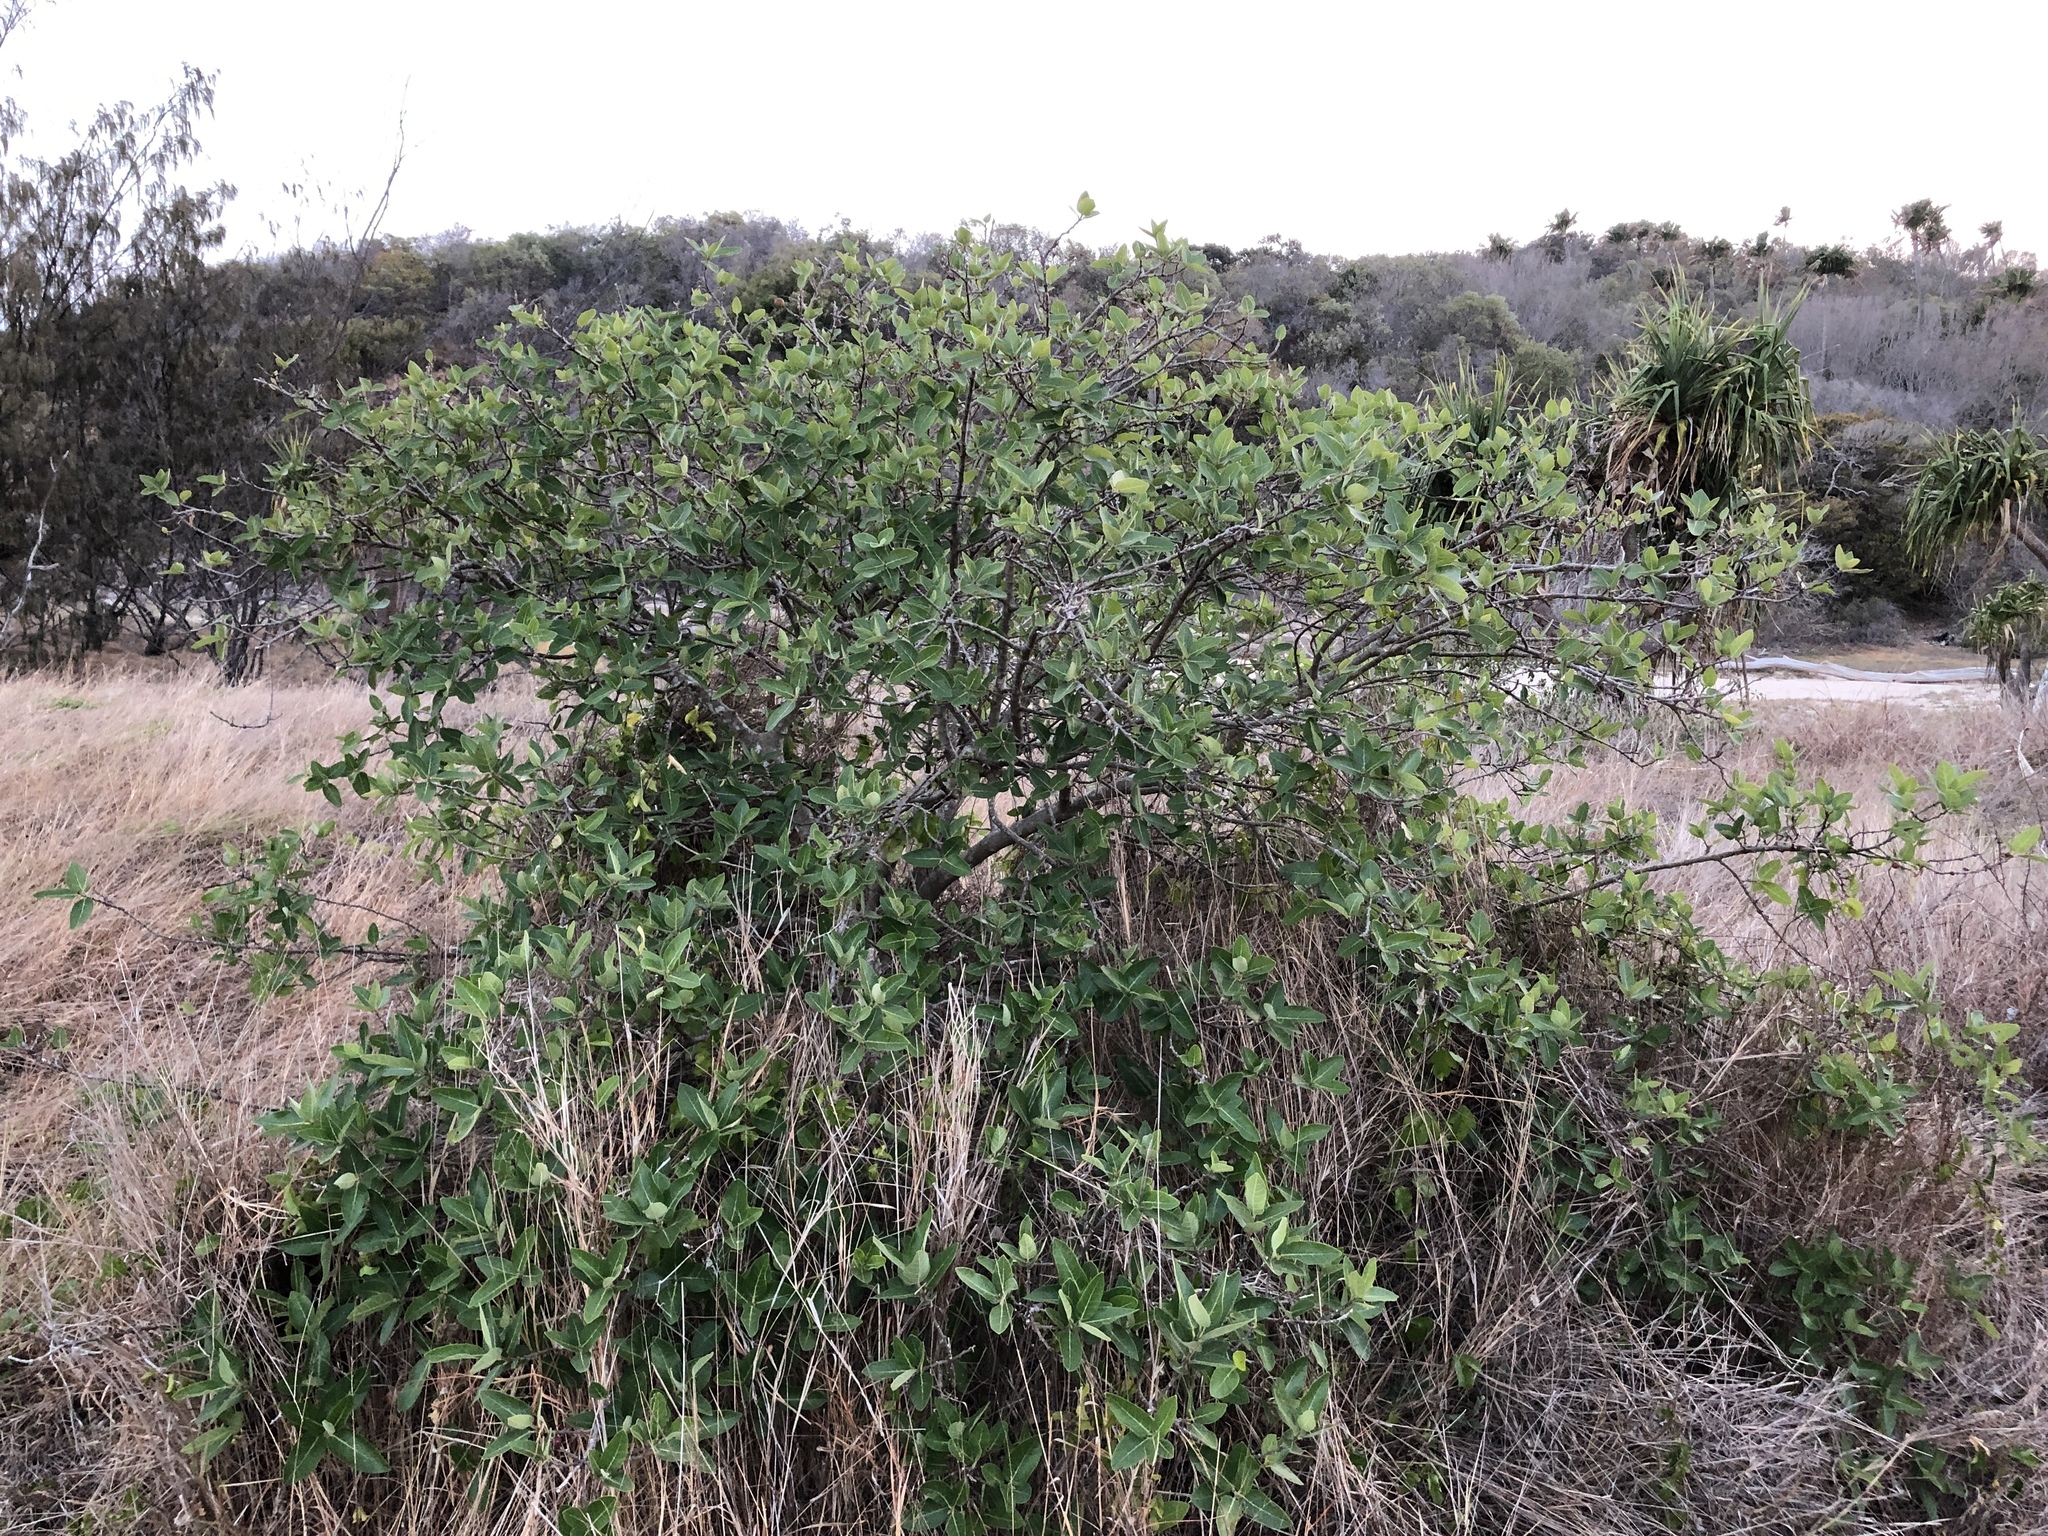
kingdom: Plantae
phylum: Tracheophyta
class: Magnoliopsida
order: Rosales
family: Moraceae
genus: Ficus
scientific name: Ficus opposita
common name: Figwood
